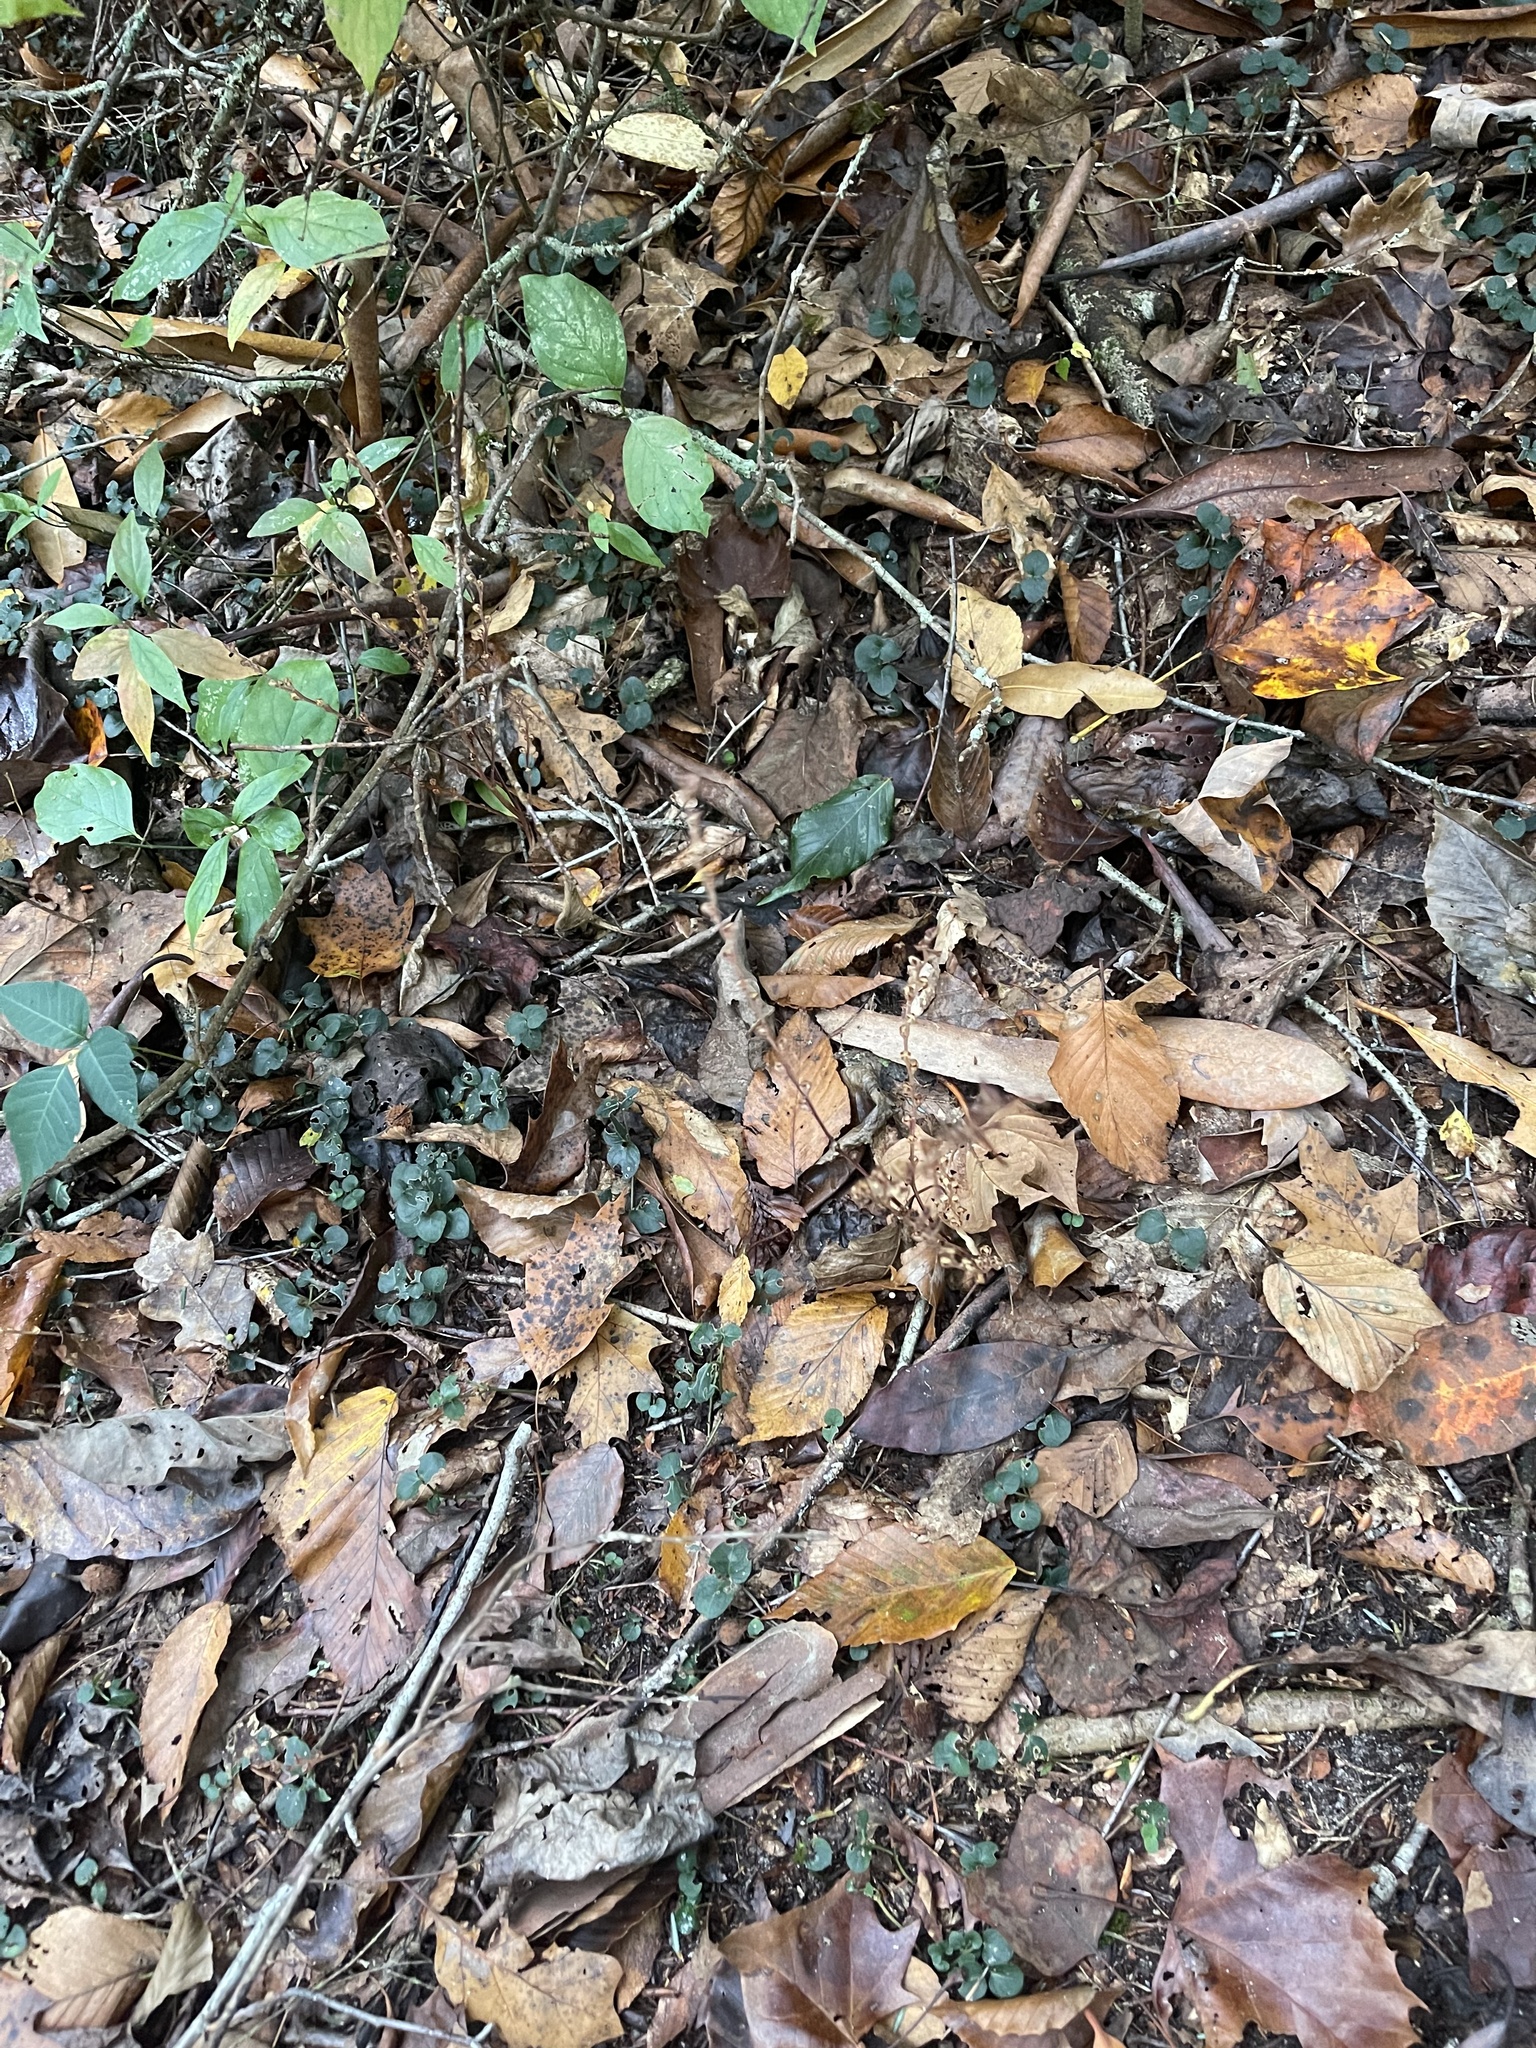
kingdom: Plantae
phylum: Tracheophyta
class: Magnoliopsida
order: Lamiales
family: Orobanchaceae
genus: Epifagus
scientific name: Epifagus virginiana
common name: Beechdrops
